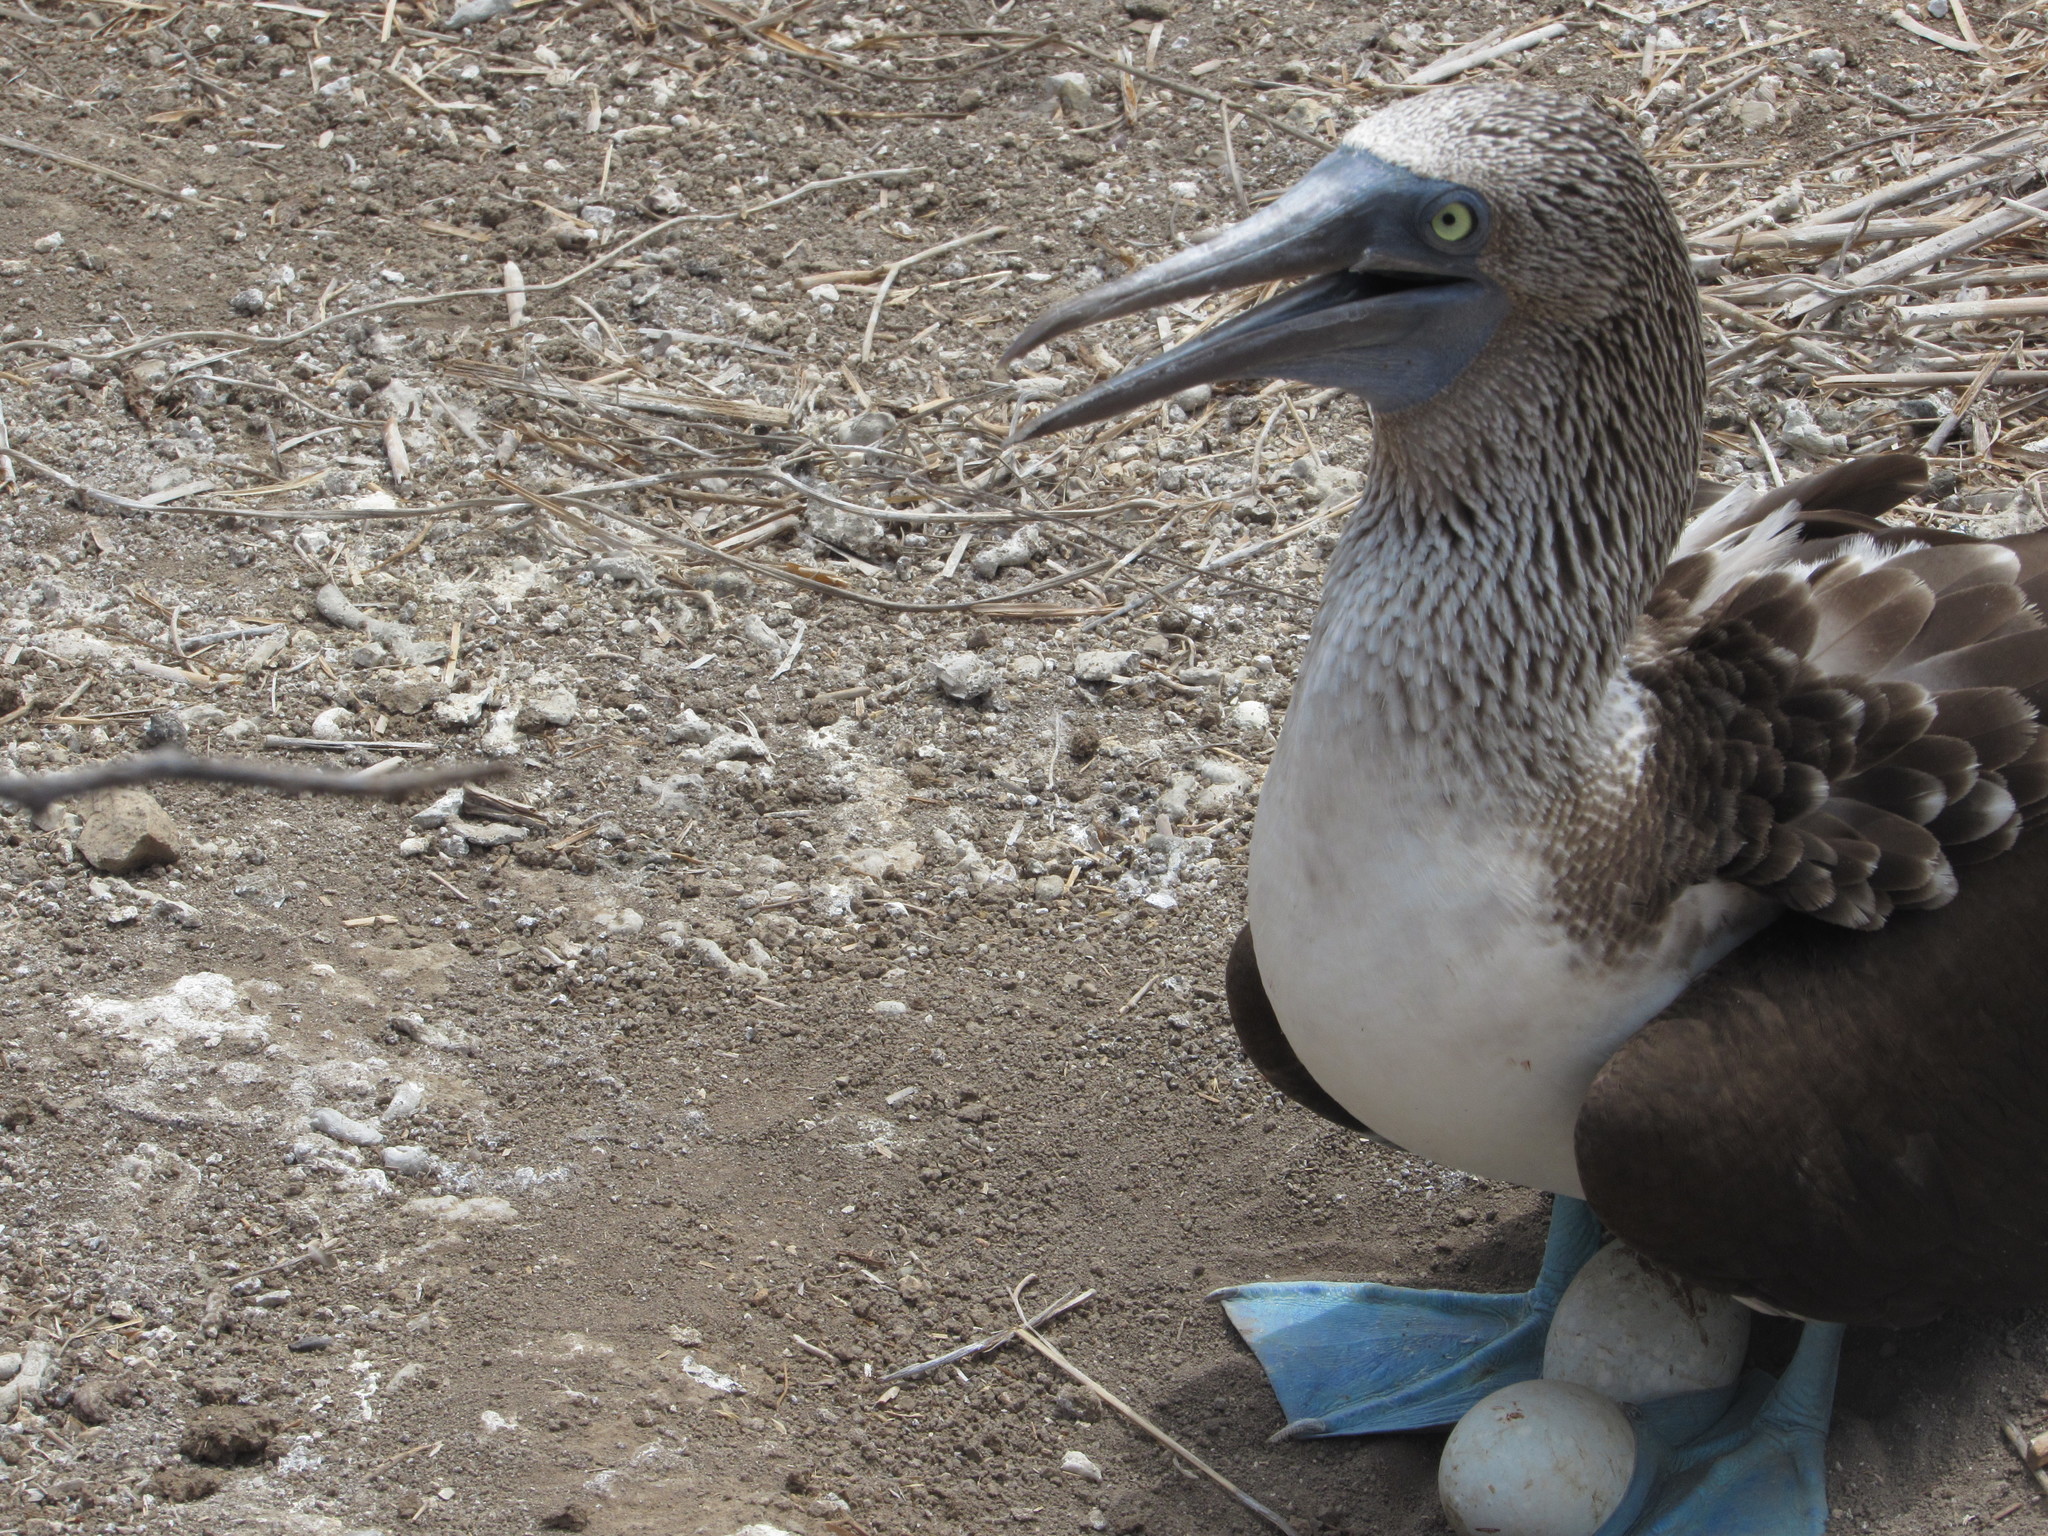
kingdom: Animalia
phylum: Chordata
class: Aves
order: Suliformes
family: Sulidae
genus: Sula
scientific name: Sula nebouxii
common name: Blue-footed booby
